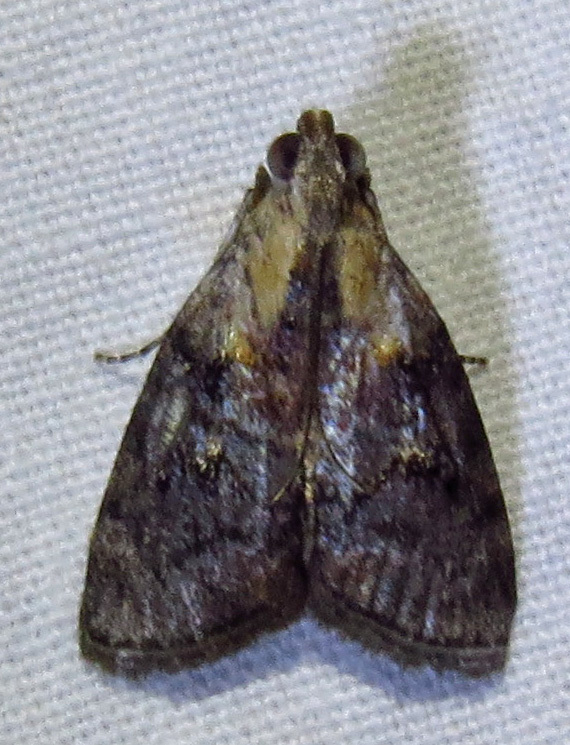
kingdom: Animalia
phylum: Arthropoda
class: Insecta
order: Lepidoptera
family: Pyralidae
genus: Pococera
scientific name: Pococera expandens
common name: Striped oak webworm moth
